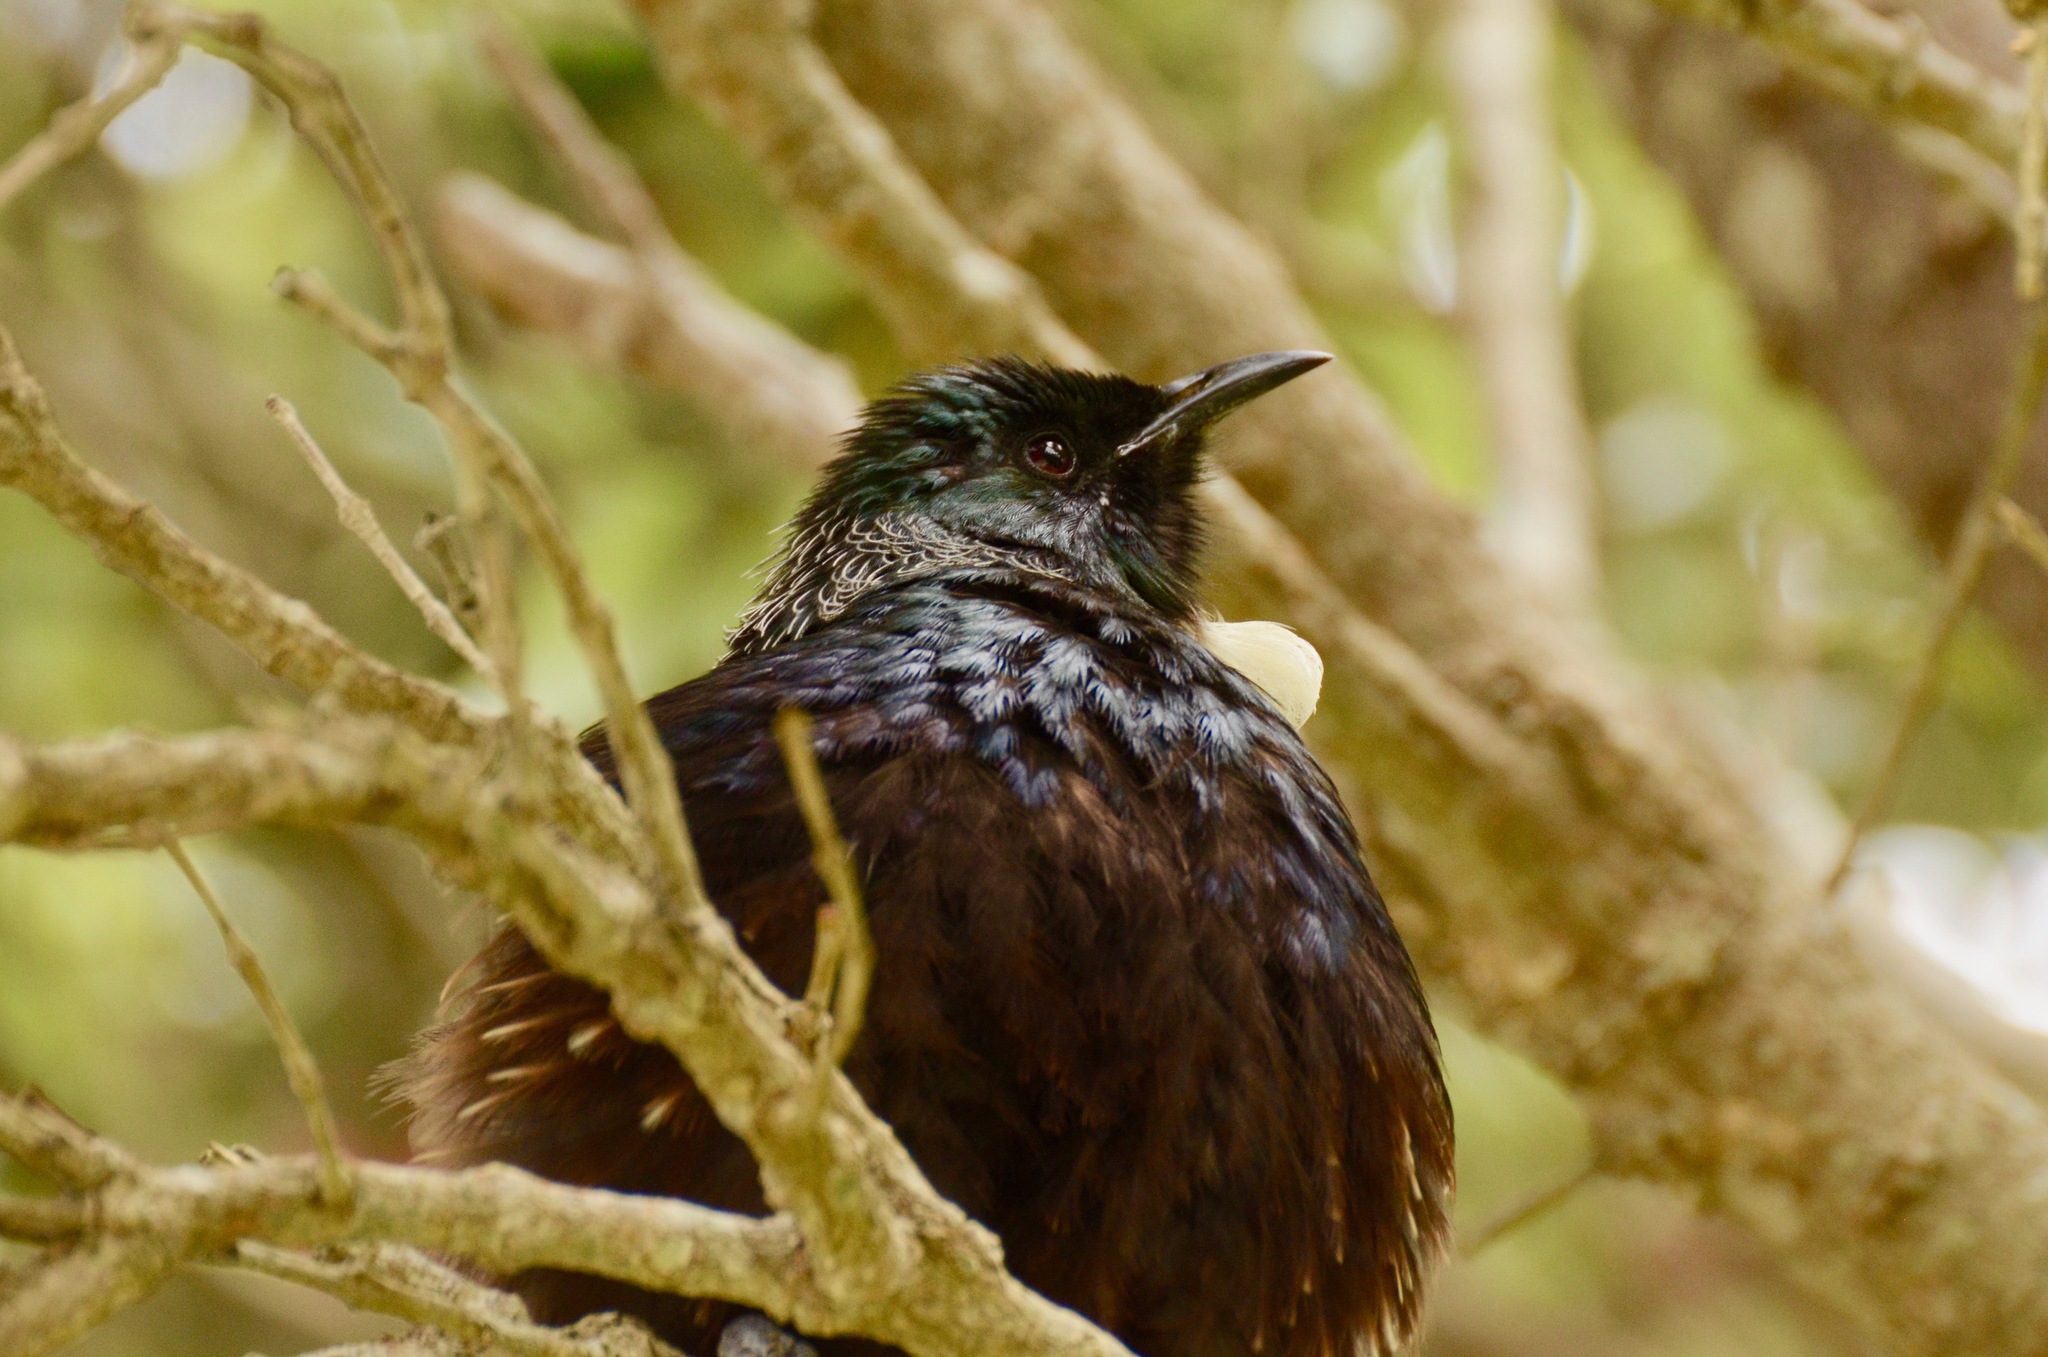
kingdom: Animalia
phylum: Chordata
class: Aves
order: Passeriformes
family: Meliphagidae
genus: Prosthemadera
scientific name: Prosthemadera novaeseelandiae
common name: Tui
